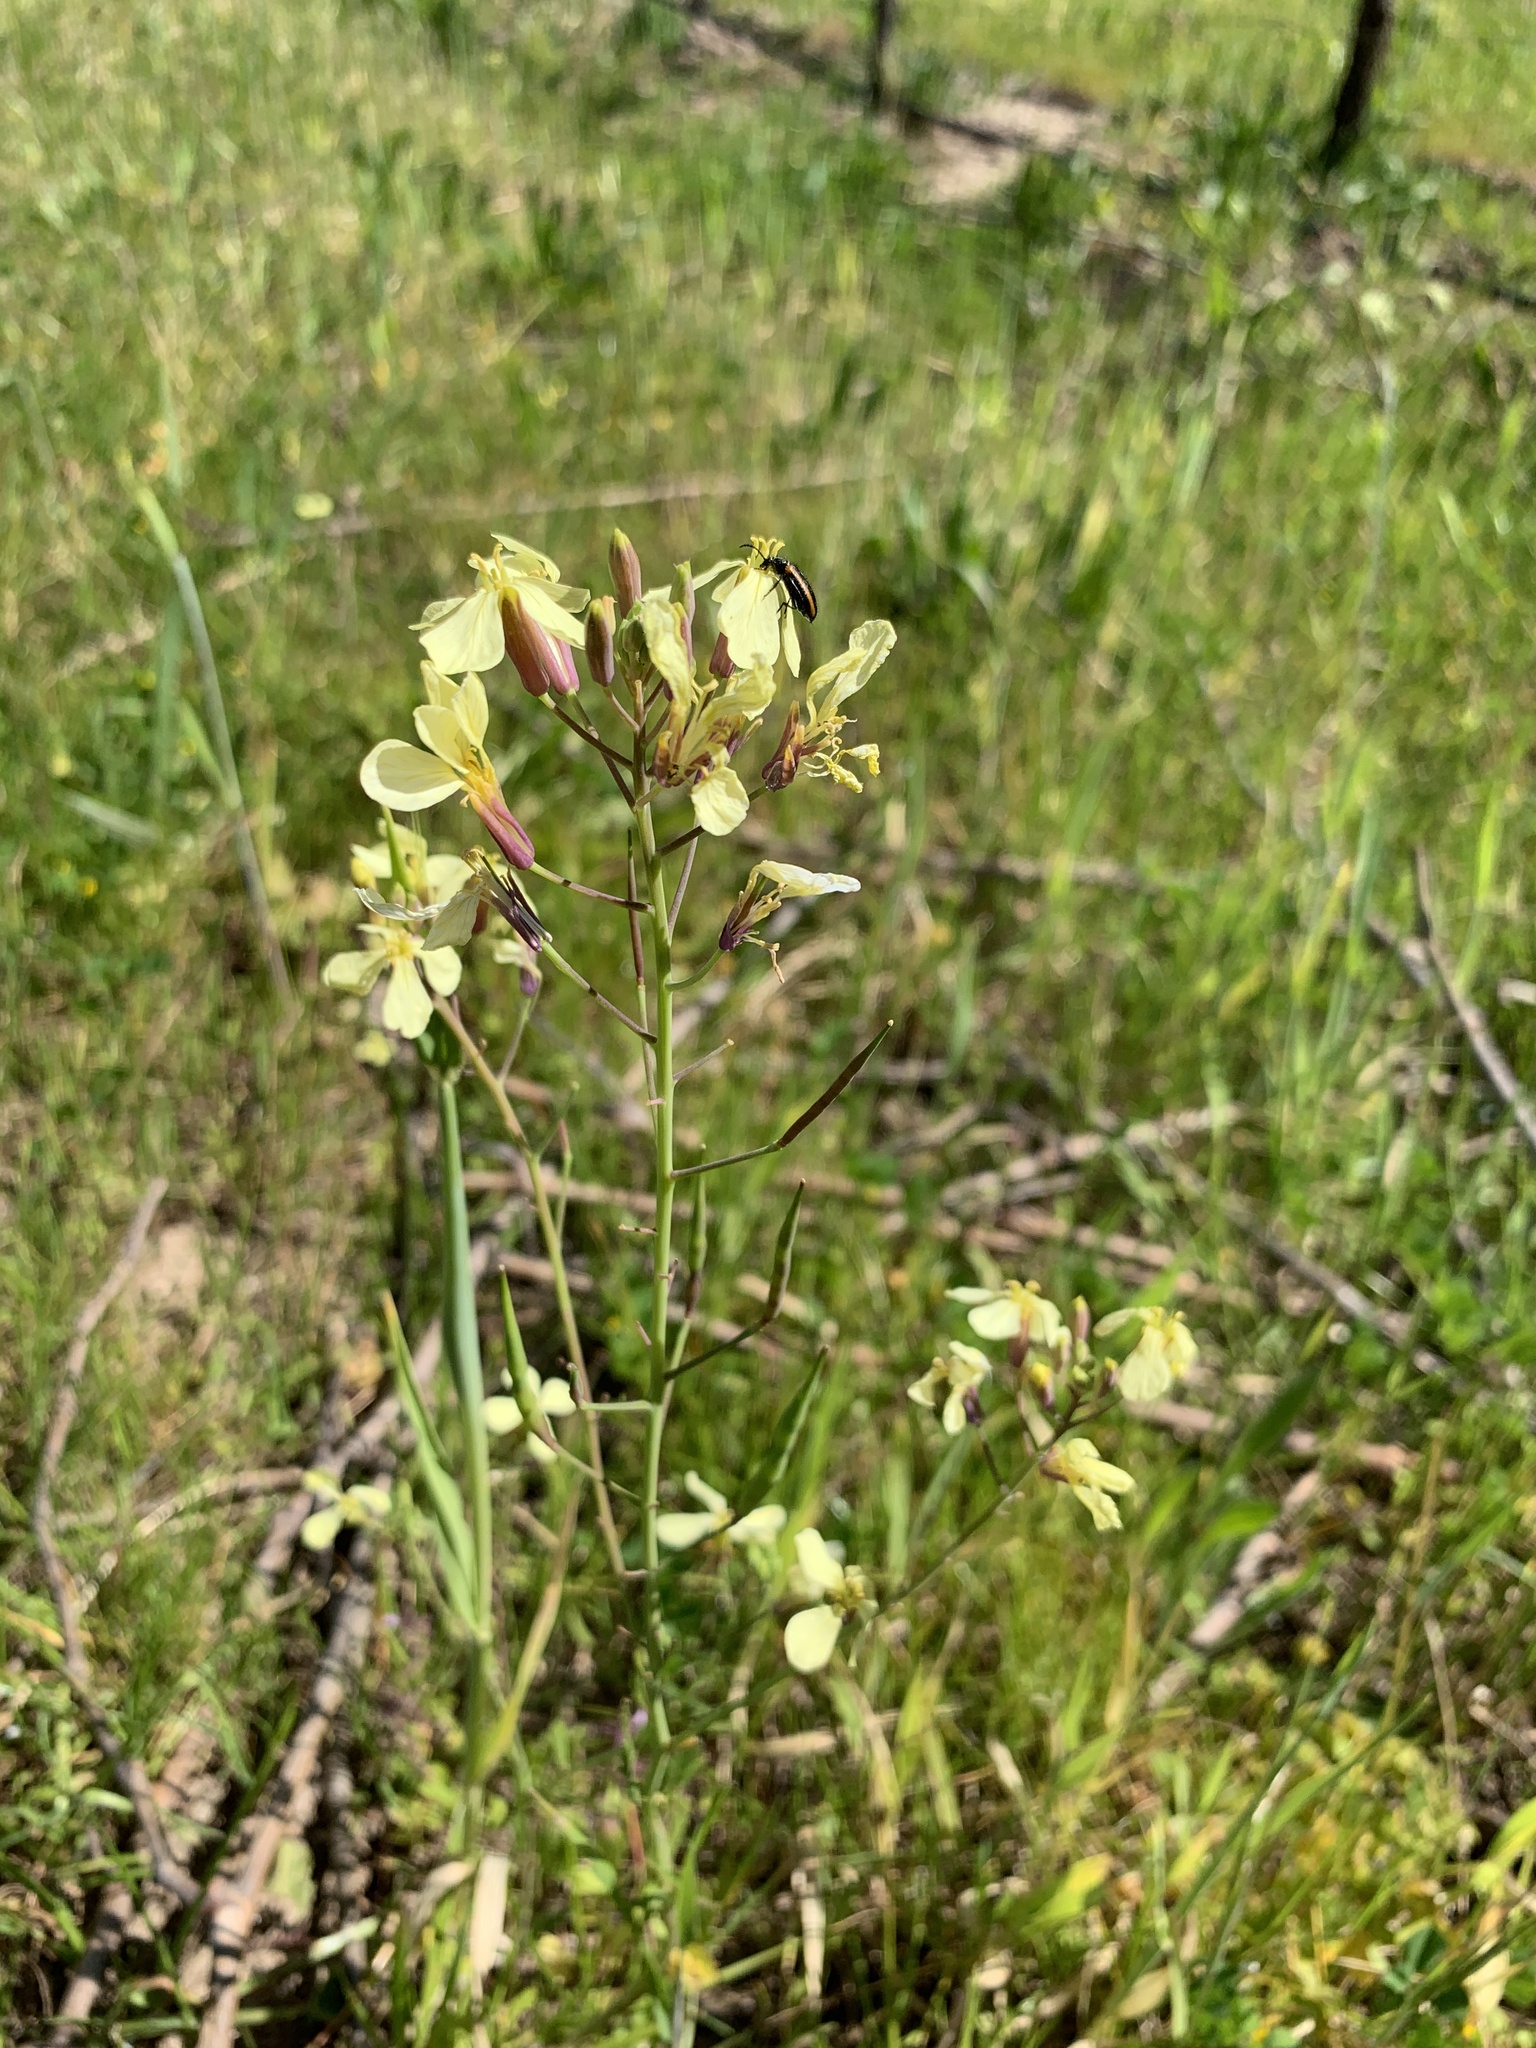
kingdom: Plantae
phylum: Tracheophyta
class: Magnoliopsida
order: Brassicales
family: Brassicaceae
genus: Raphanus
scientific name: Raphanus raphanistrum
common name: Wild radish
